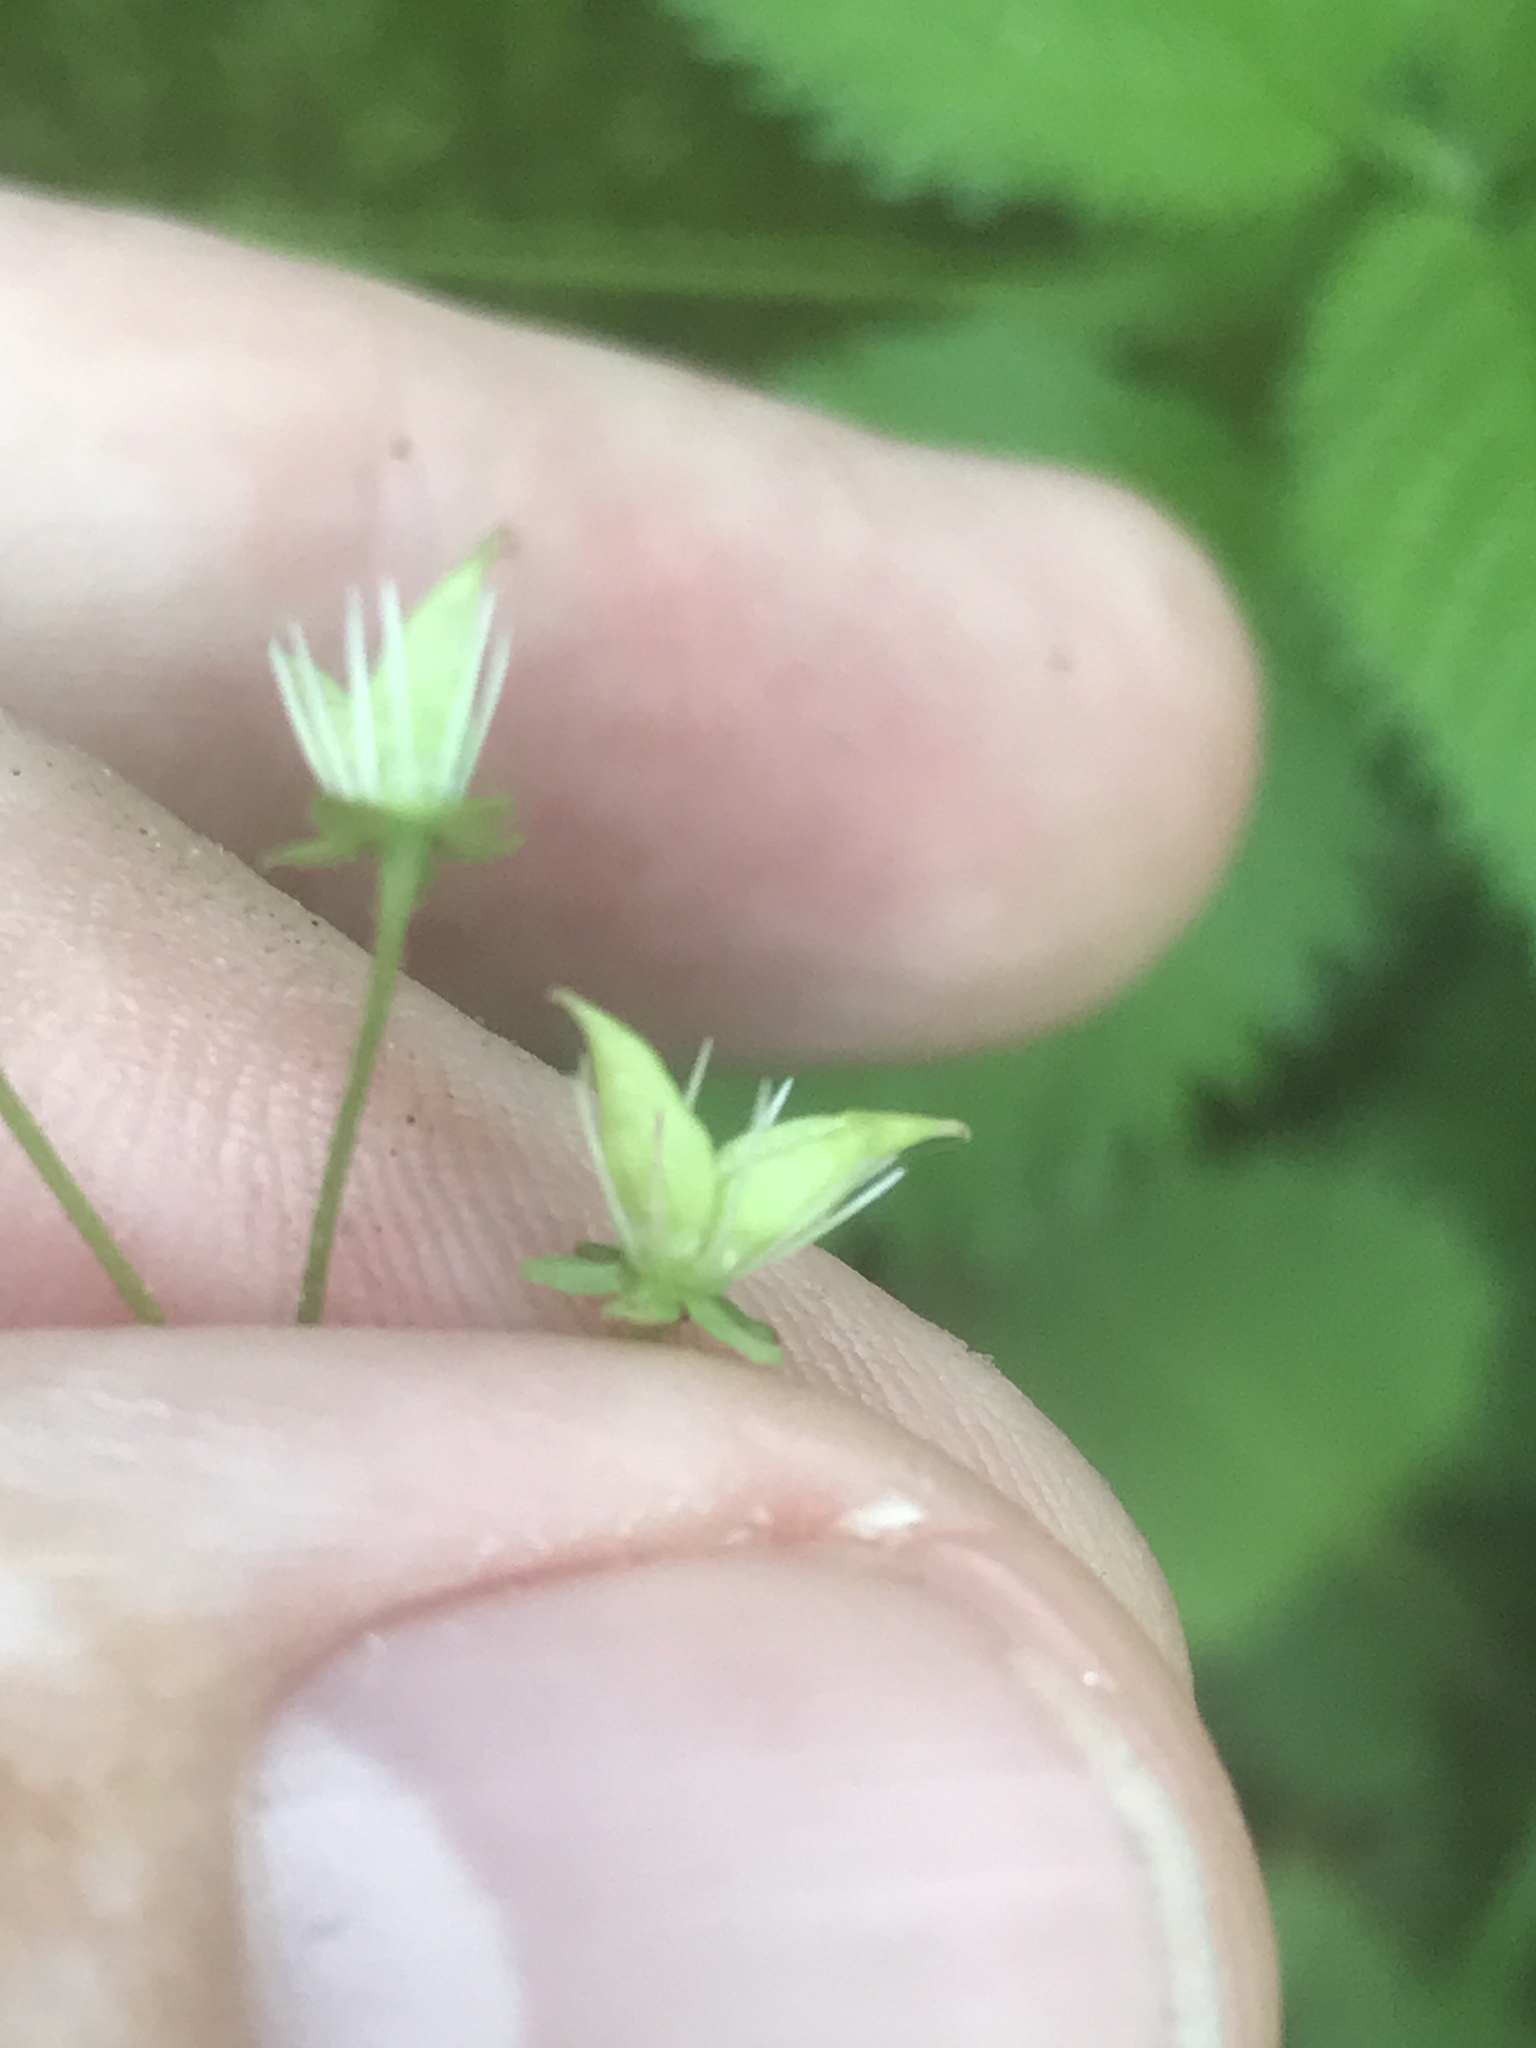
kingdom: Plantae
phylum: Tracheophyta
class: Magnoliopsida
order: Saxifragales
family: Saxifragaceae
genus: Micranthes
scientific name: Micranthes careyana
